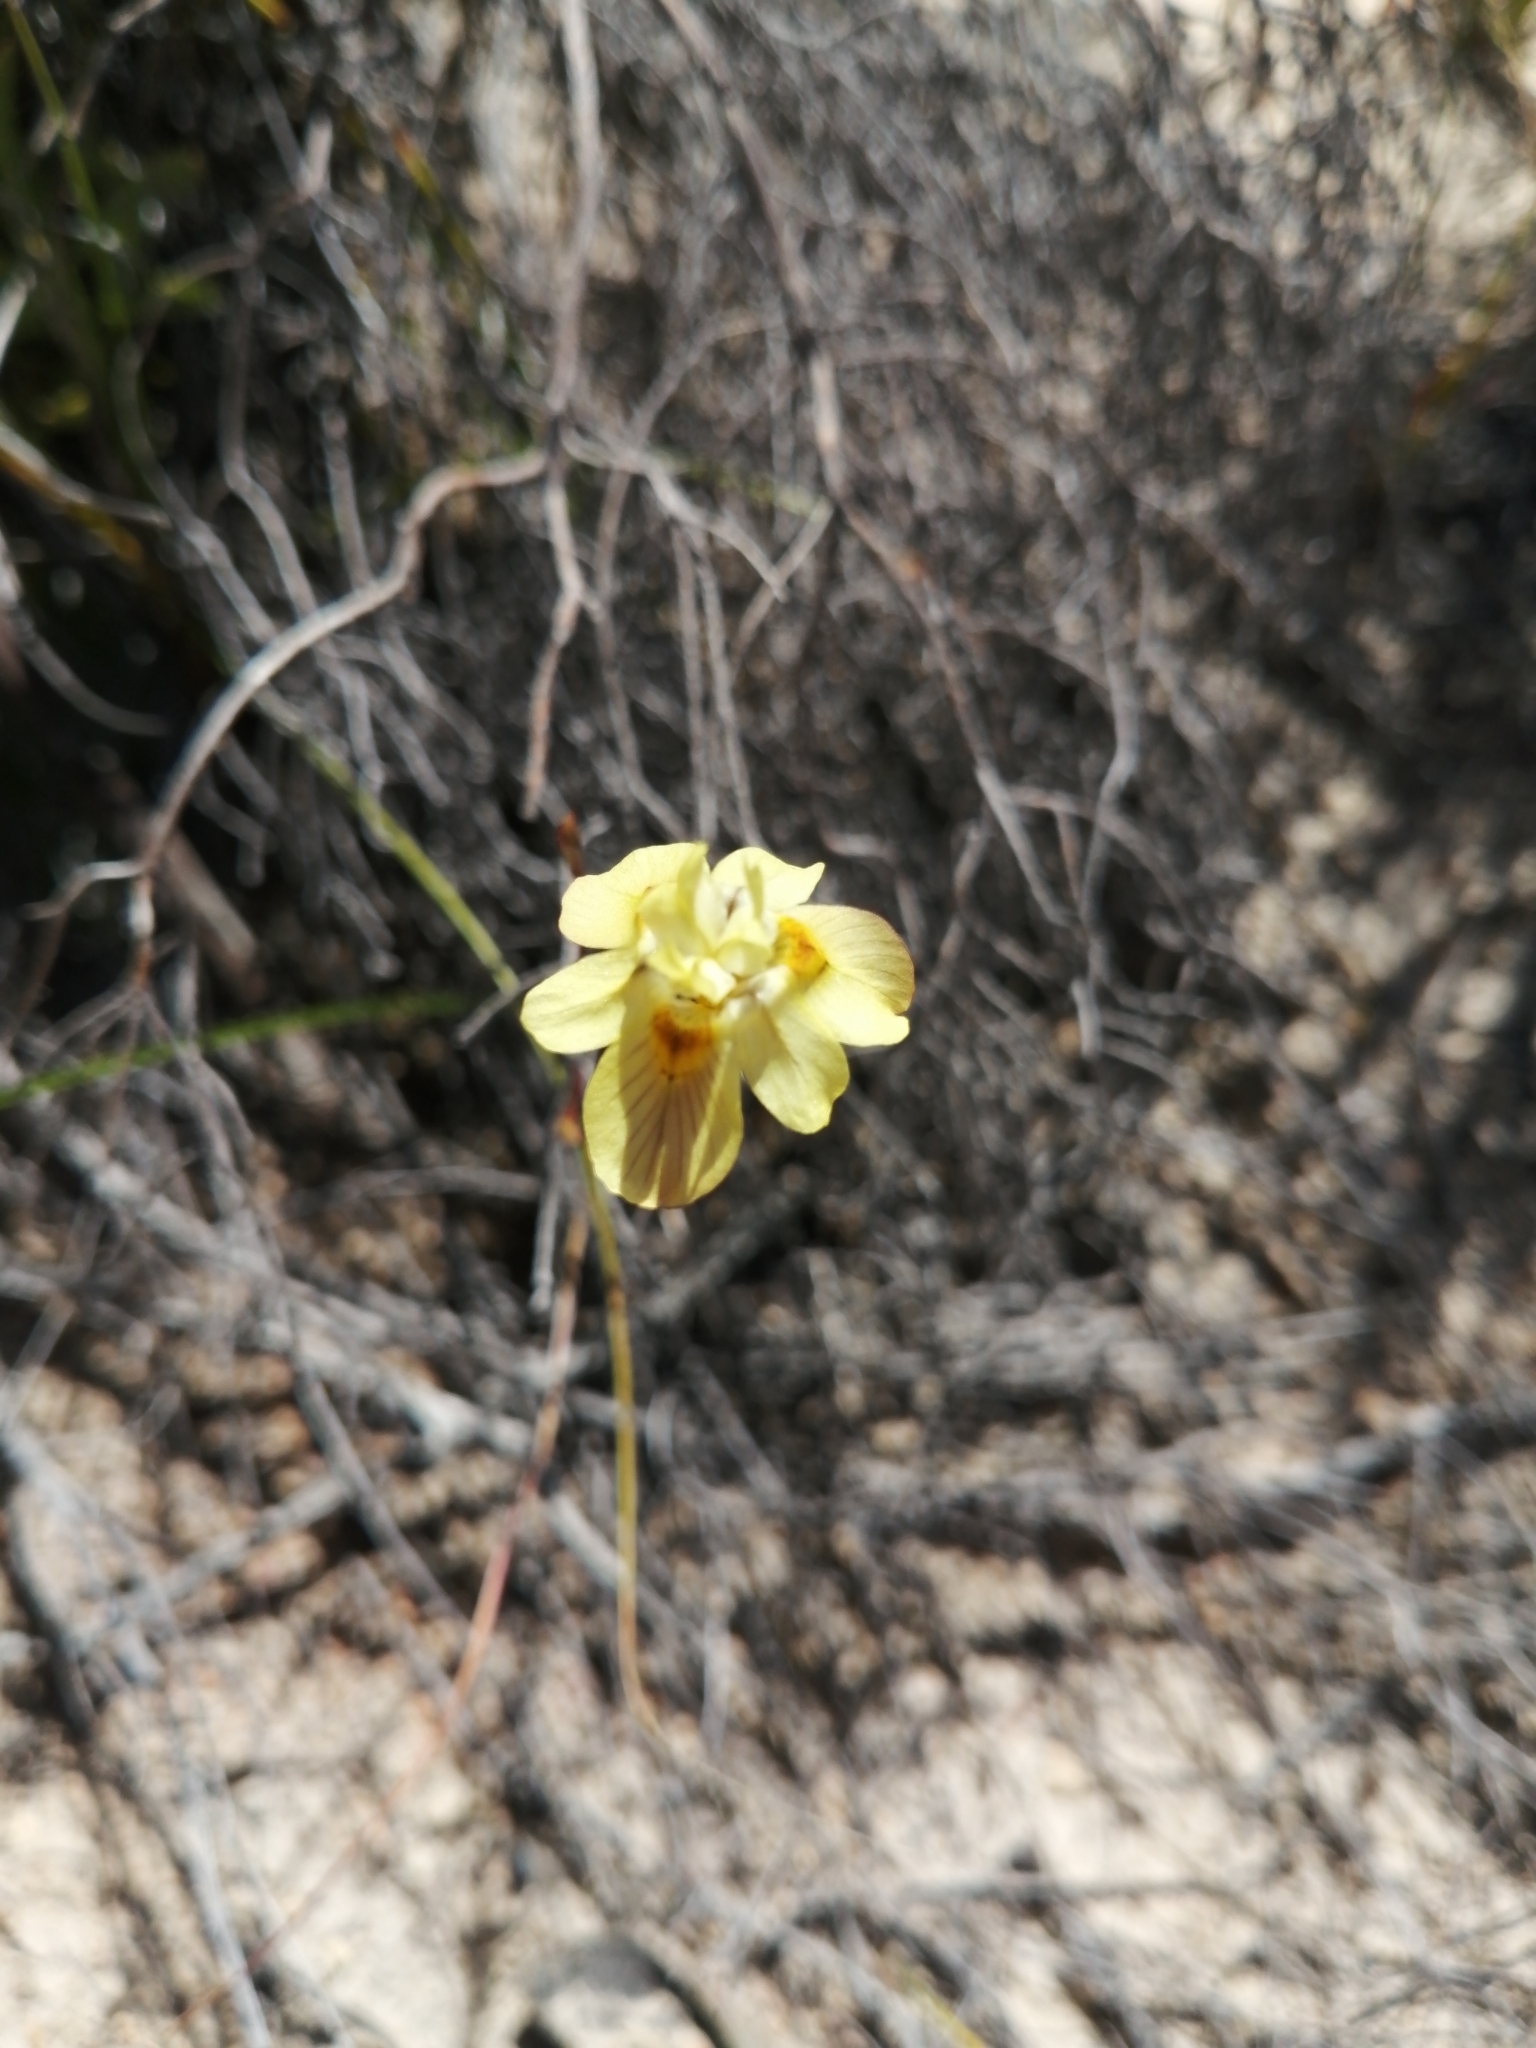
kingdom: Plantae
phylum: Tracheophyta
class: Liliopsida
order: Asparagales
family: Iridaceae
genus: Moraea
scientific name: Moraea gawleri
